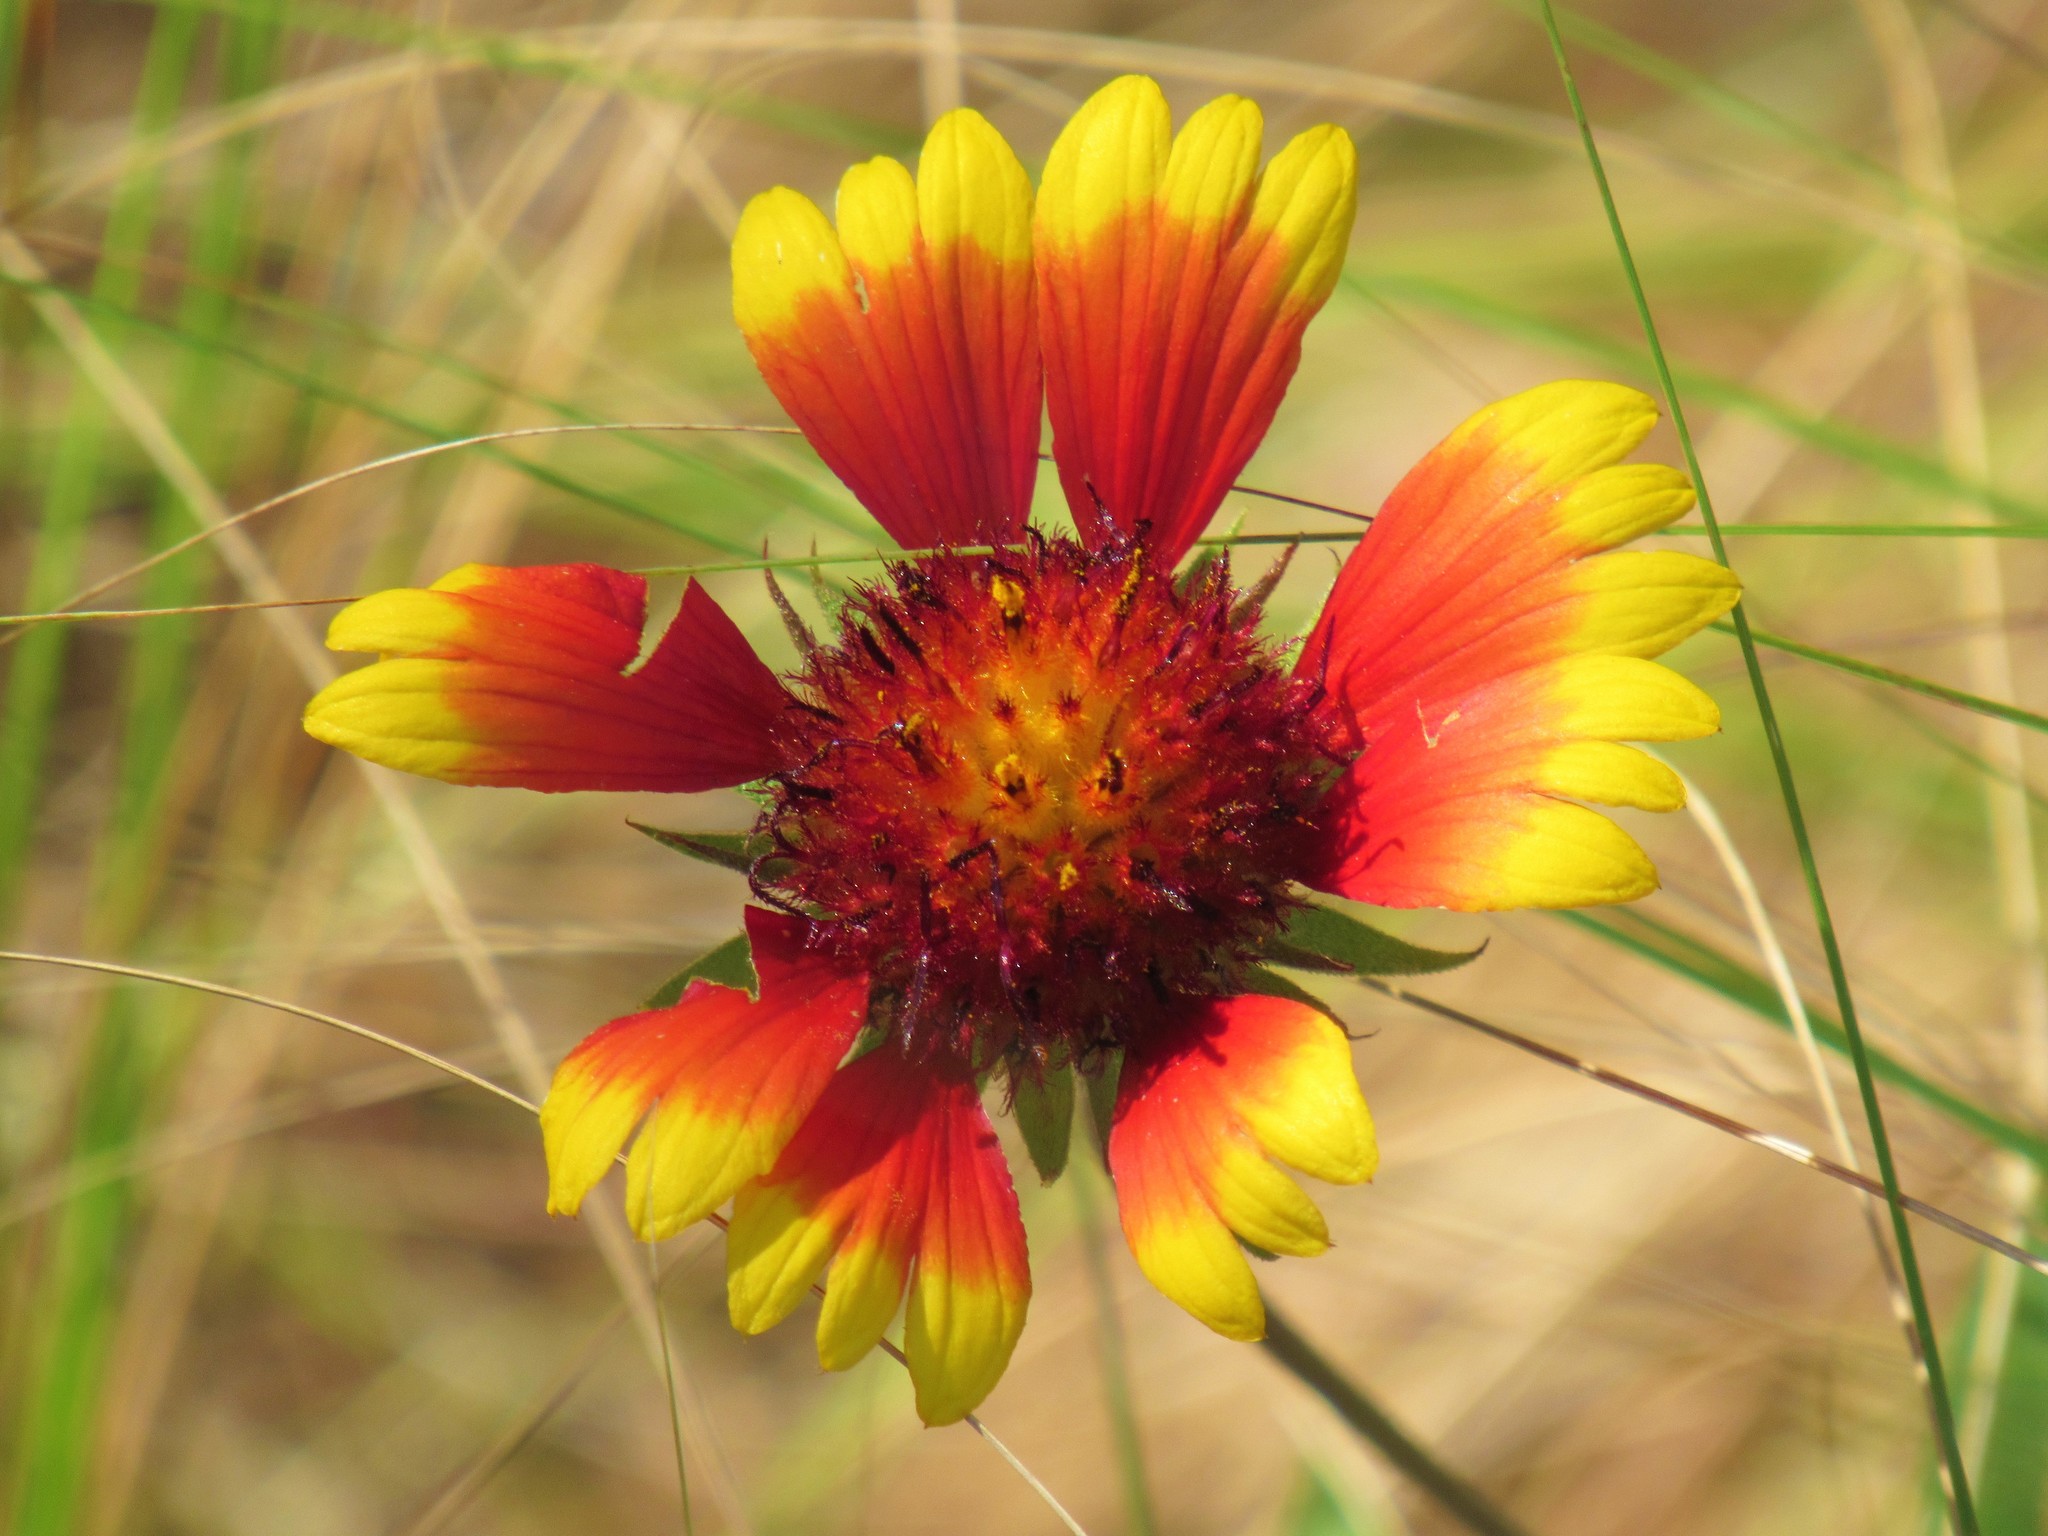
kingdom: Plantae
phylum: Tracheophyta
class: Magnoliopsida
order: Asterales
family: Asteraceae
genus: Gaillardia
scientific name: Gaillardia pulchella
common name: Firewheel
